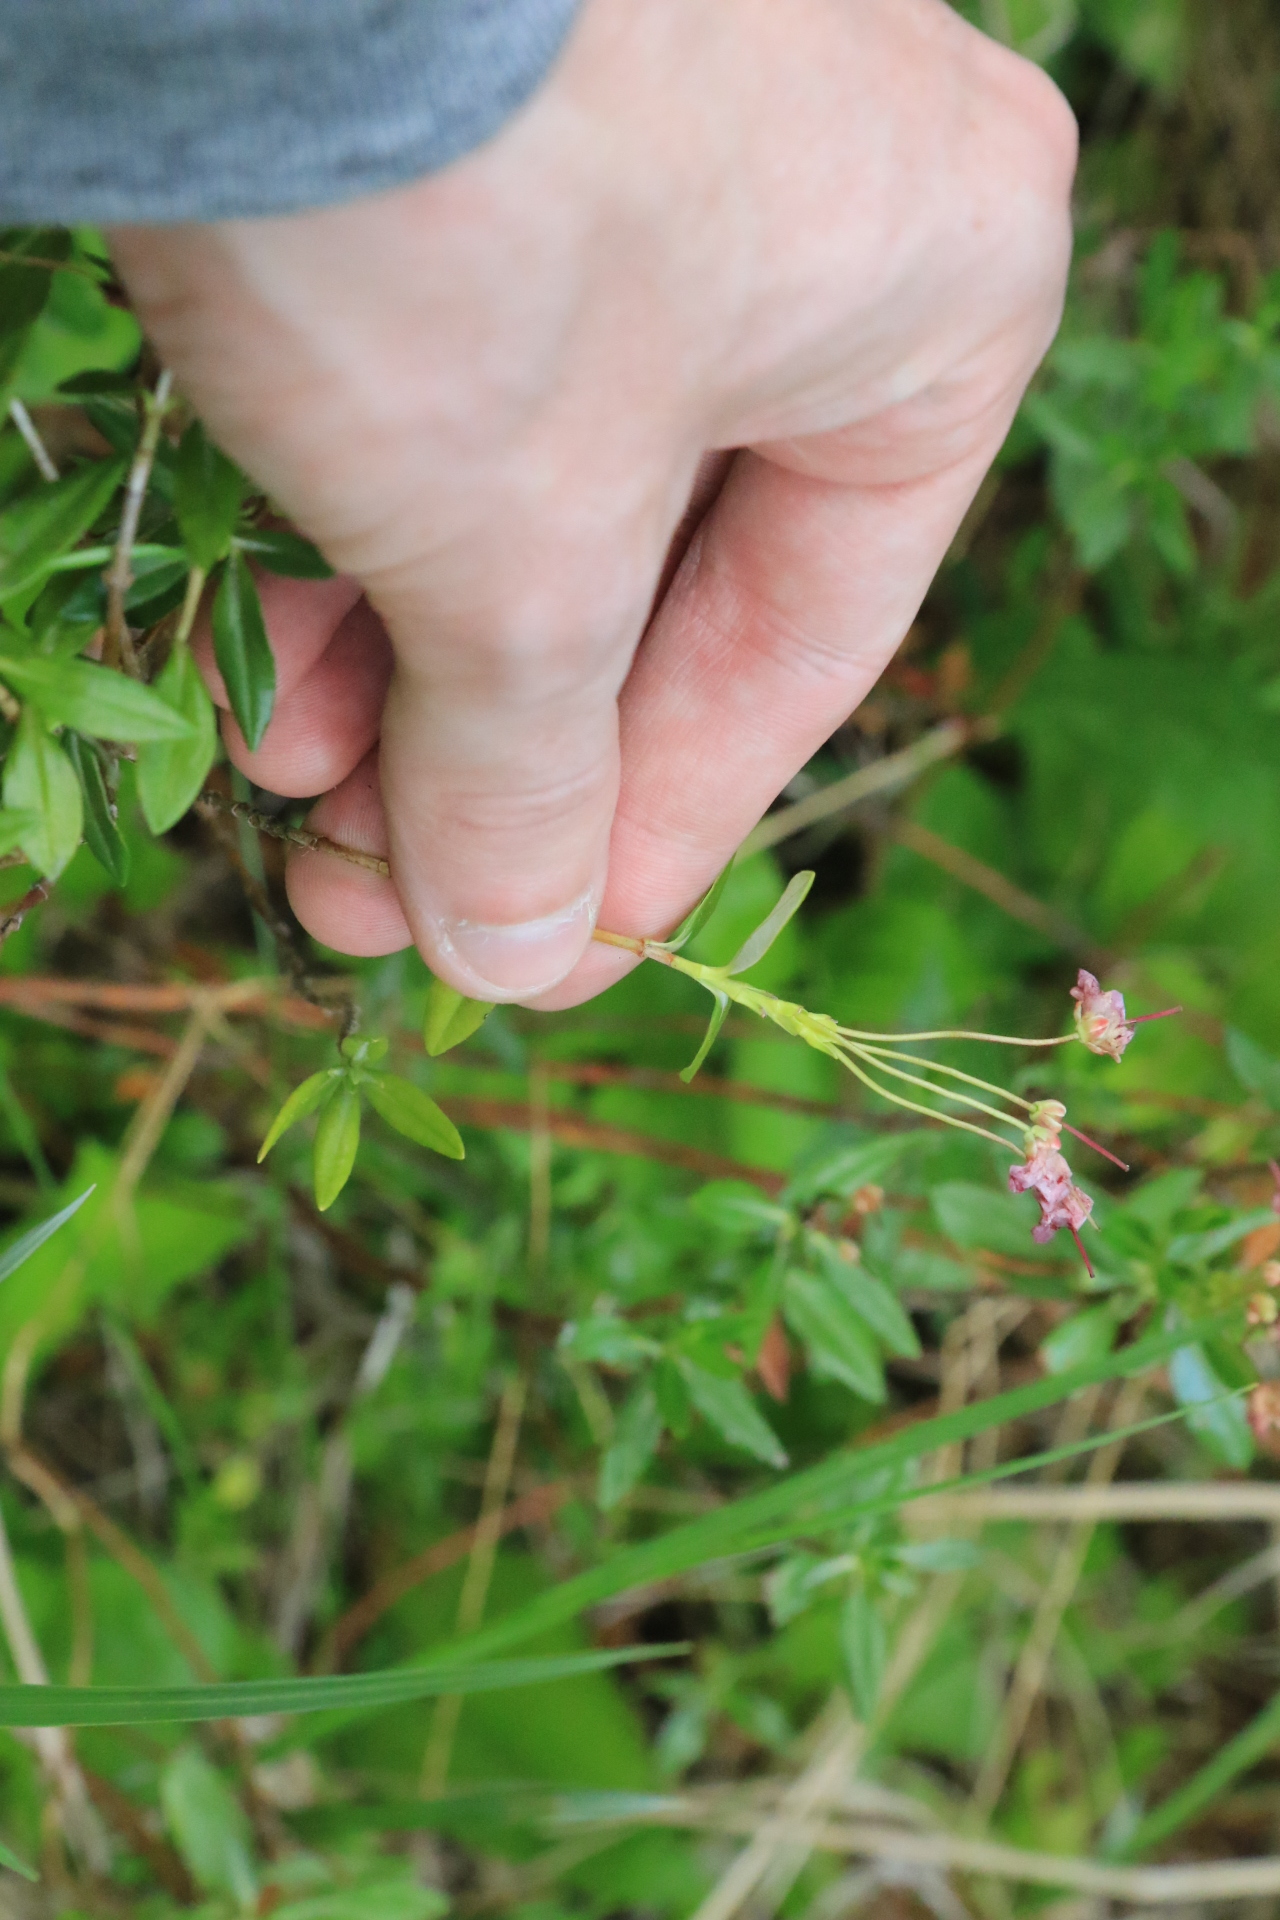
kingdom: Plantae
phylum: Tracheophyta
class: Magnoliopsida
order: Ericales
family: Ericaceae
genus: Kalmia
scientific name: Kalmia microphylla
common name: Alpine bog laurel
